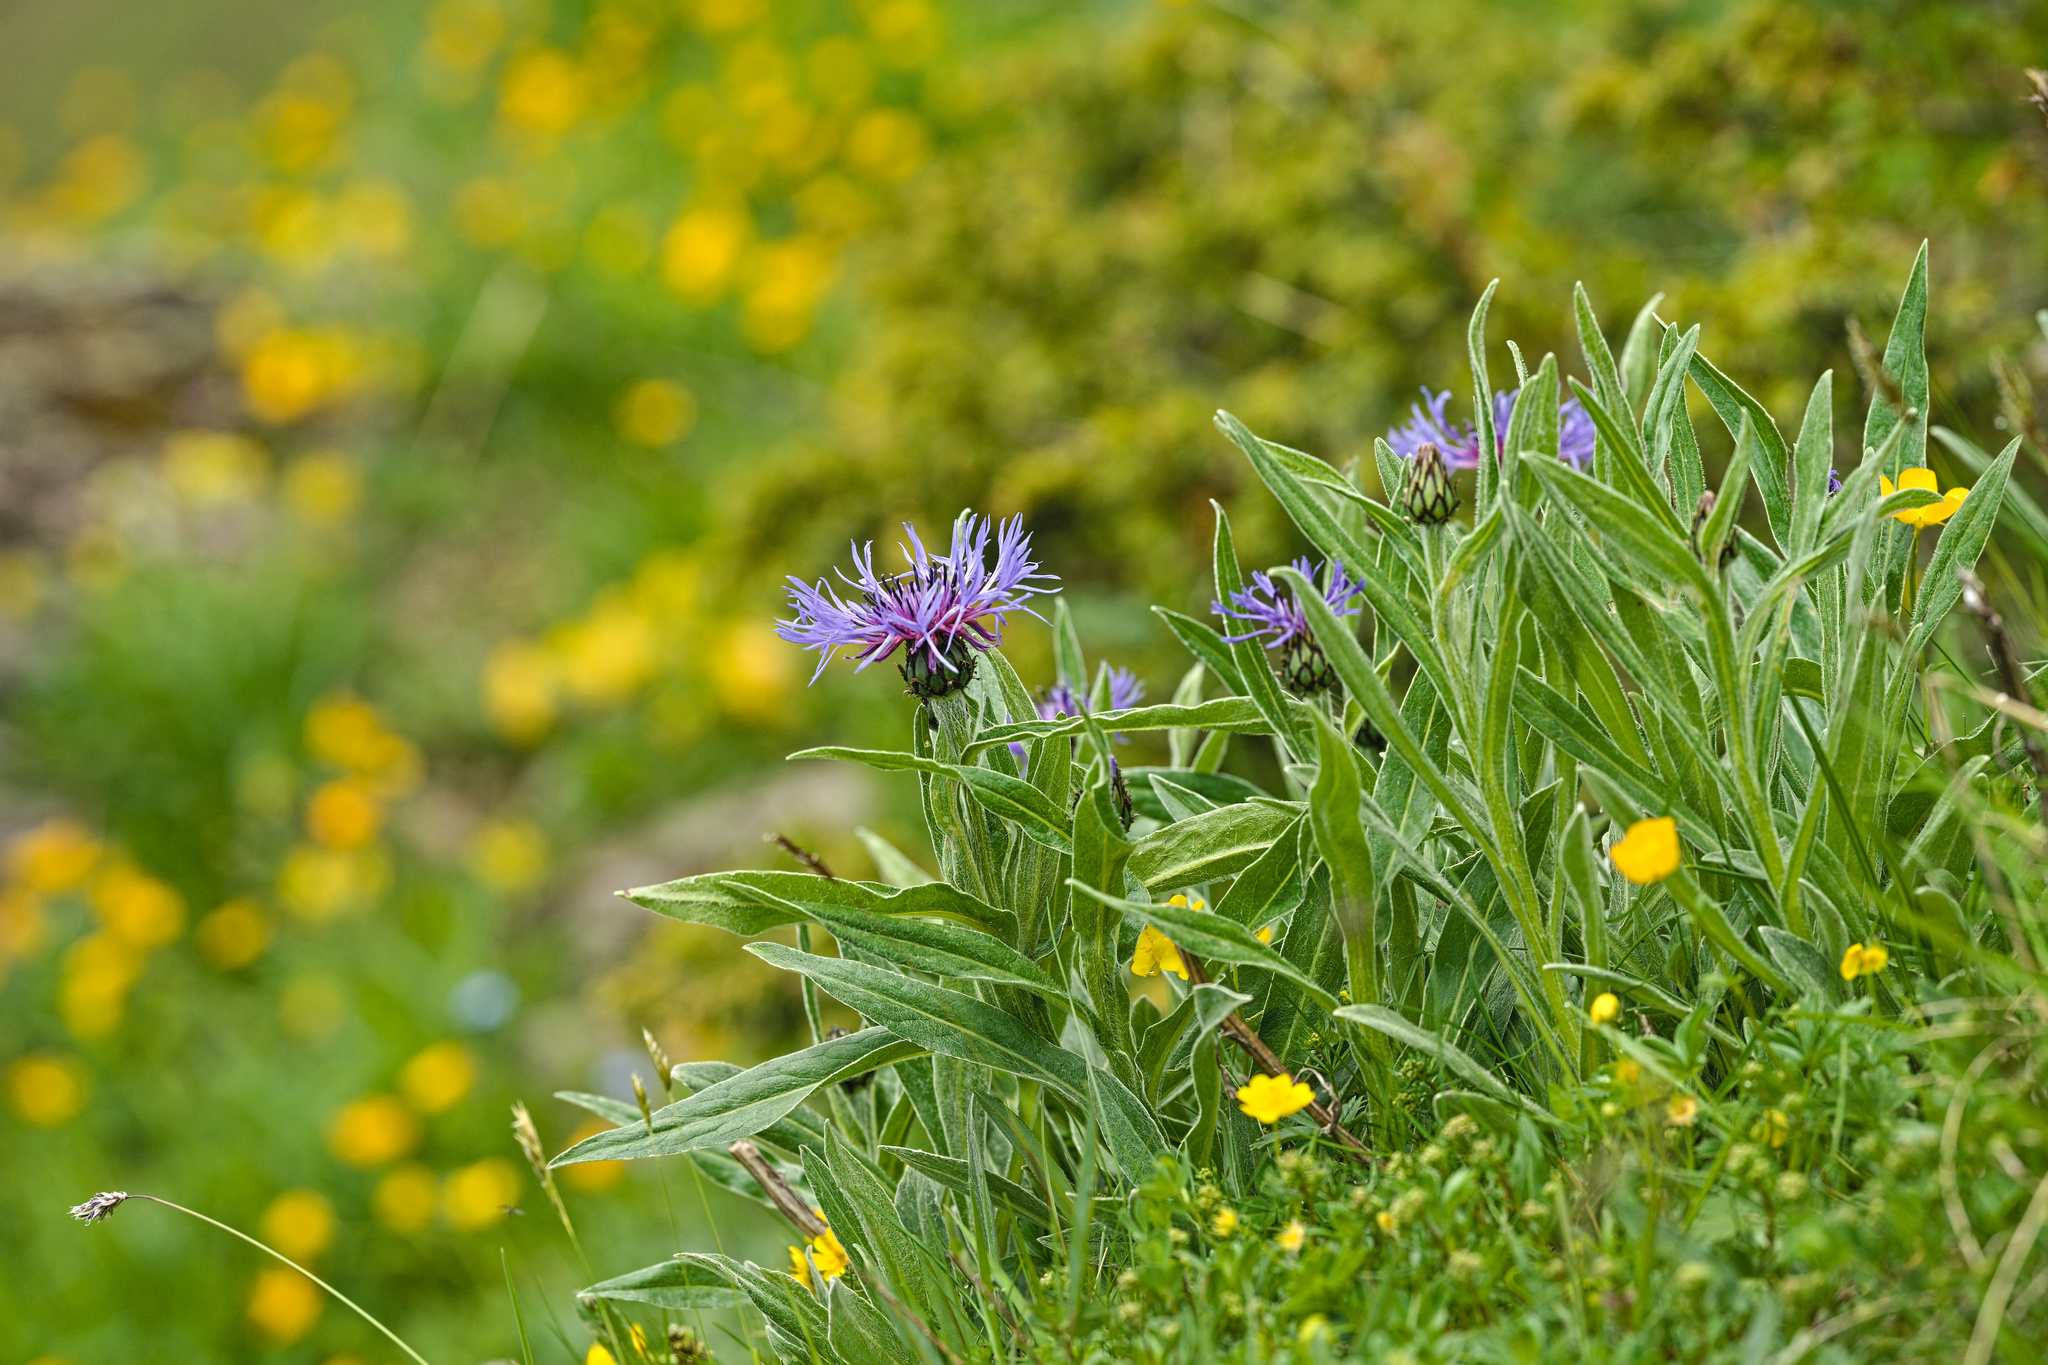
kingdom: Plantae
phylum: Tracheophyta
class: Magnoliopsida
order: Asterales
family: Asteraceae
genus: Centaurea
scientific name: Centaurea montana
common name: Perennial cornflower
